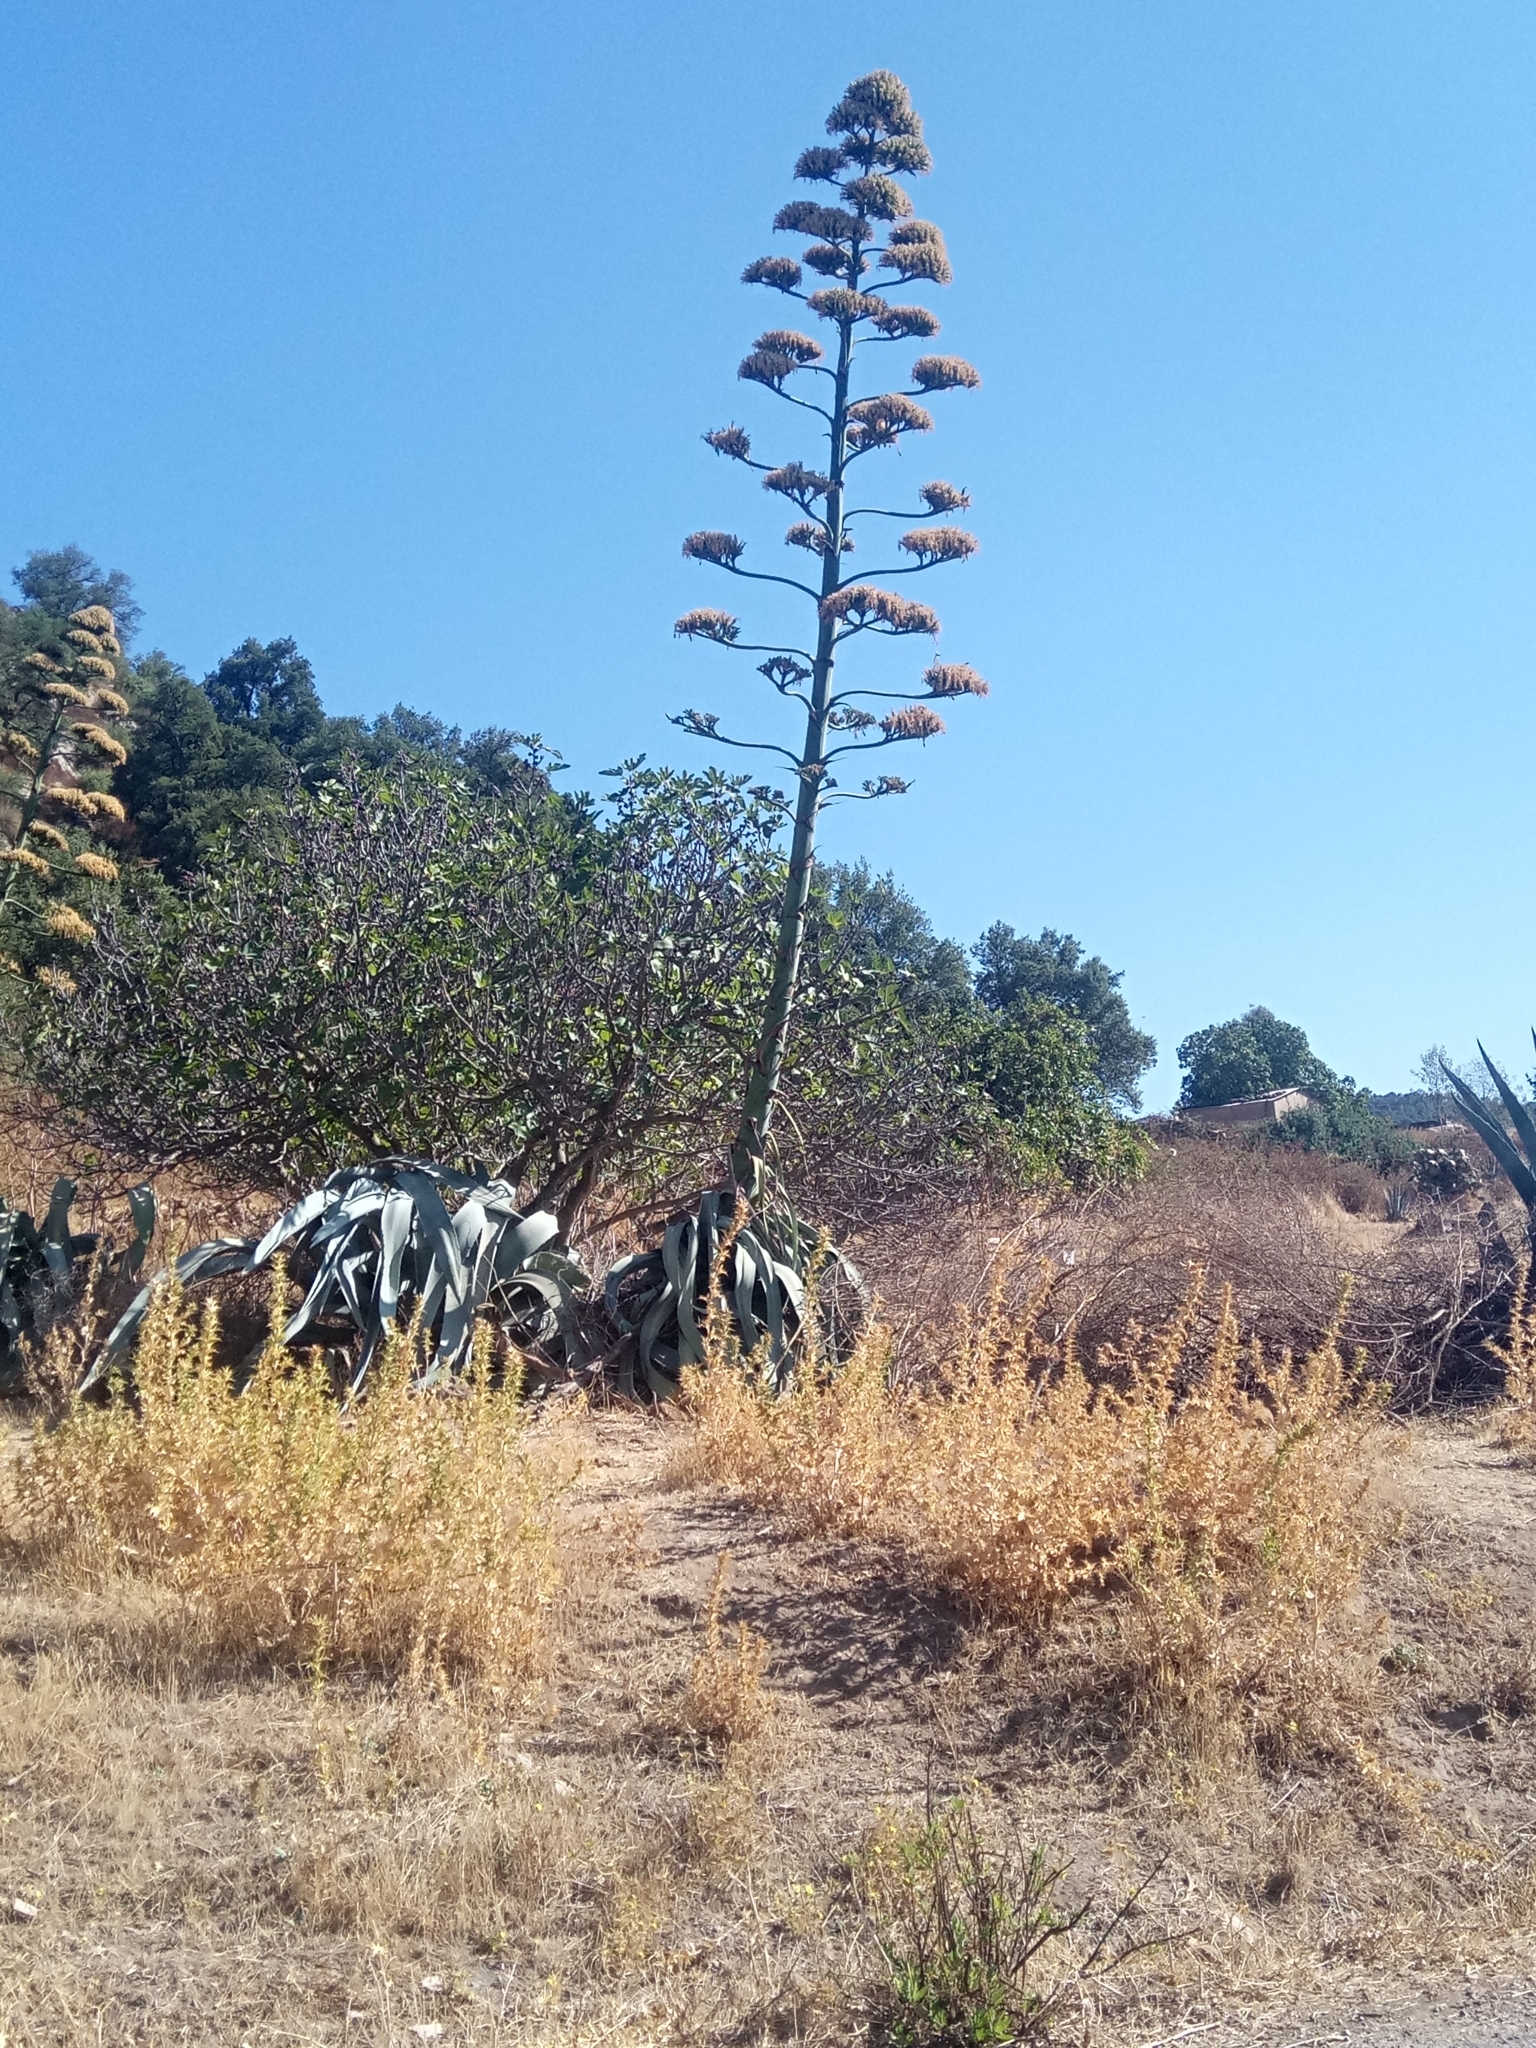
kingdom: Plantae
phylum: Tracheophyta
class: Liliopsida
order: Asparagales
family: Asparagaceae
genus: Agave
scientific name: Agave americana
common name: Centuryplant
